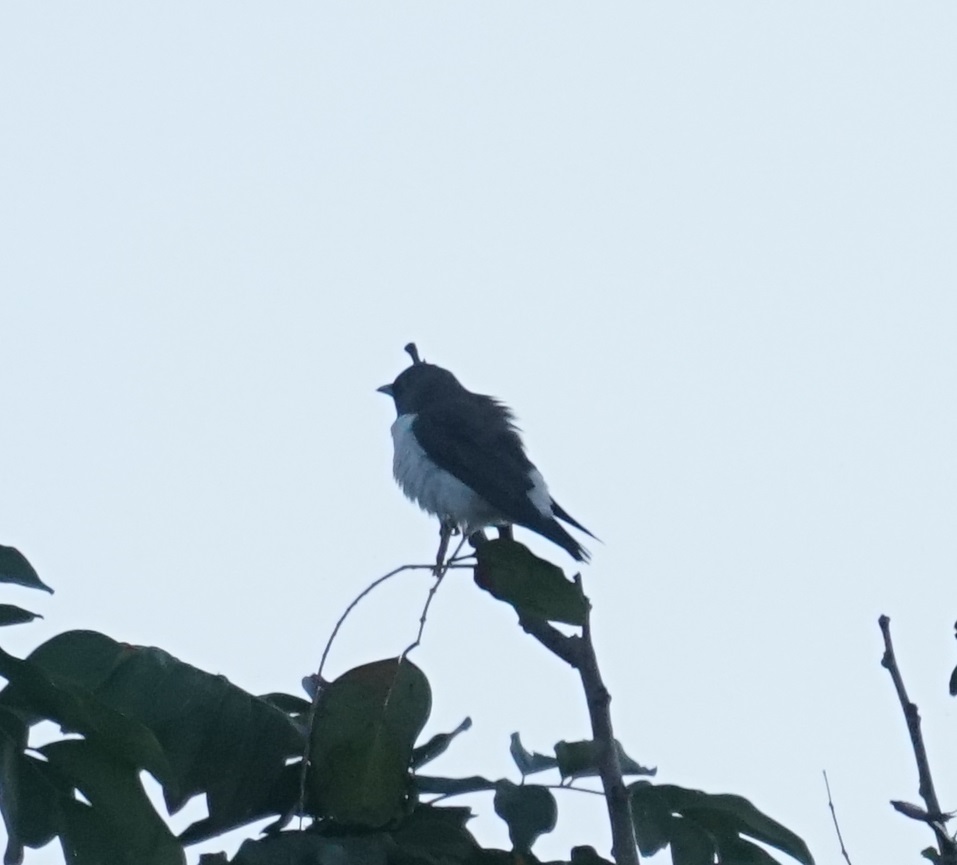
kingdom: Animalia
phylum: Chordata
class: Aves
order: Passeriformes
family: Artamidae
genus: Artamus
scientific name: Artamus leucoryn
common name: White-breasted woodswallow
